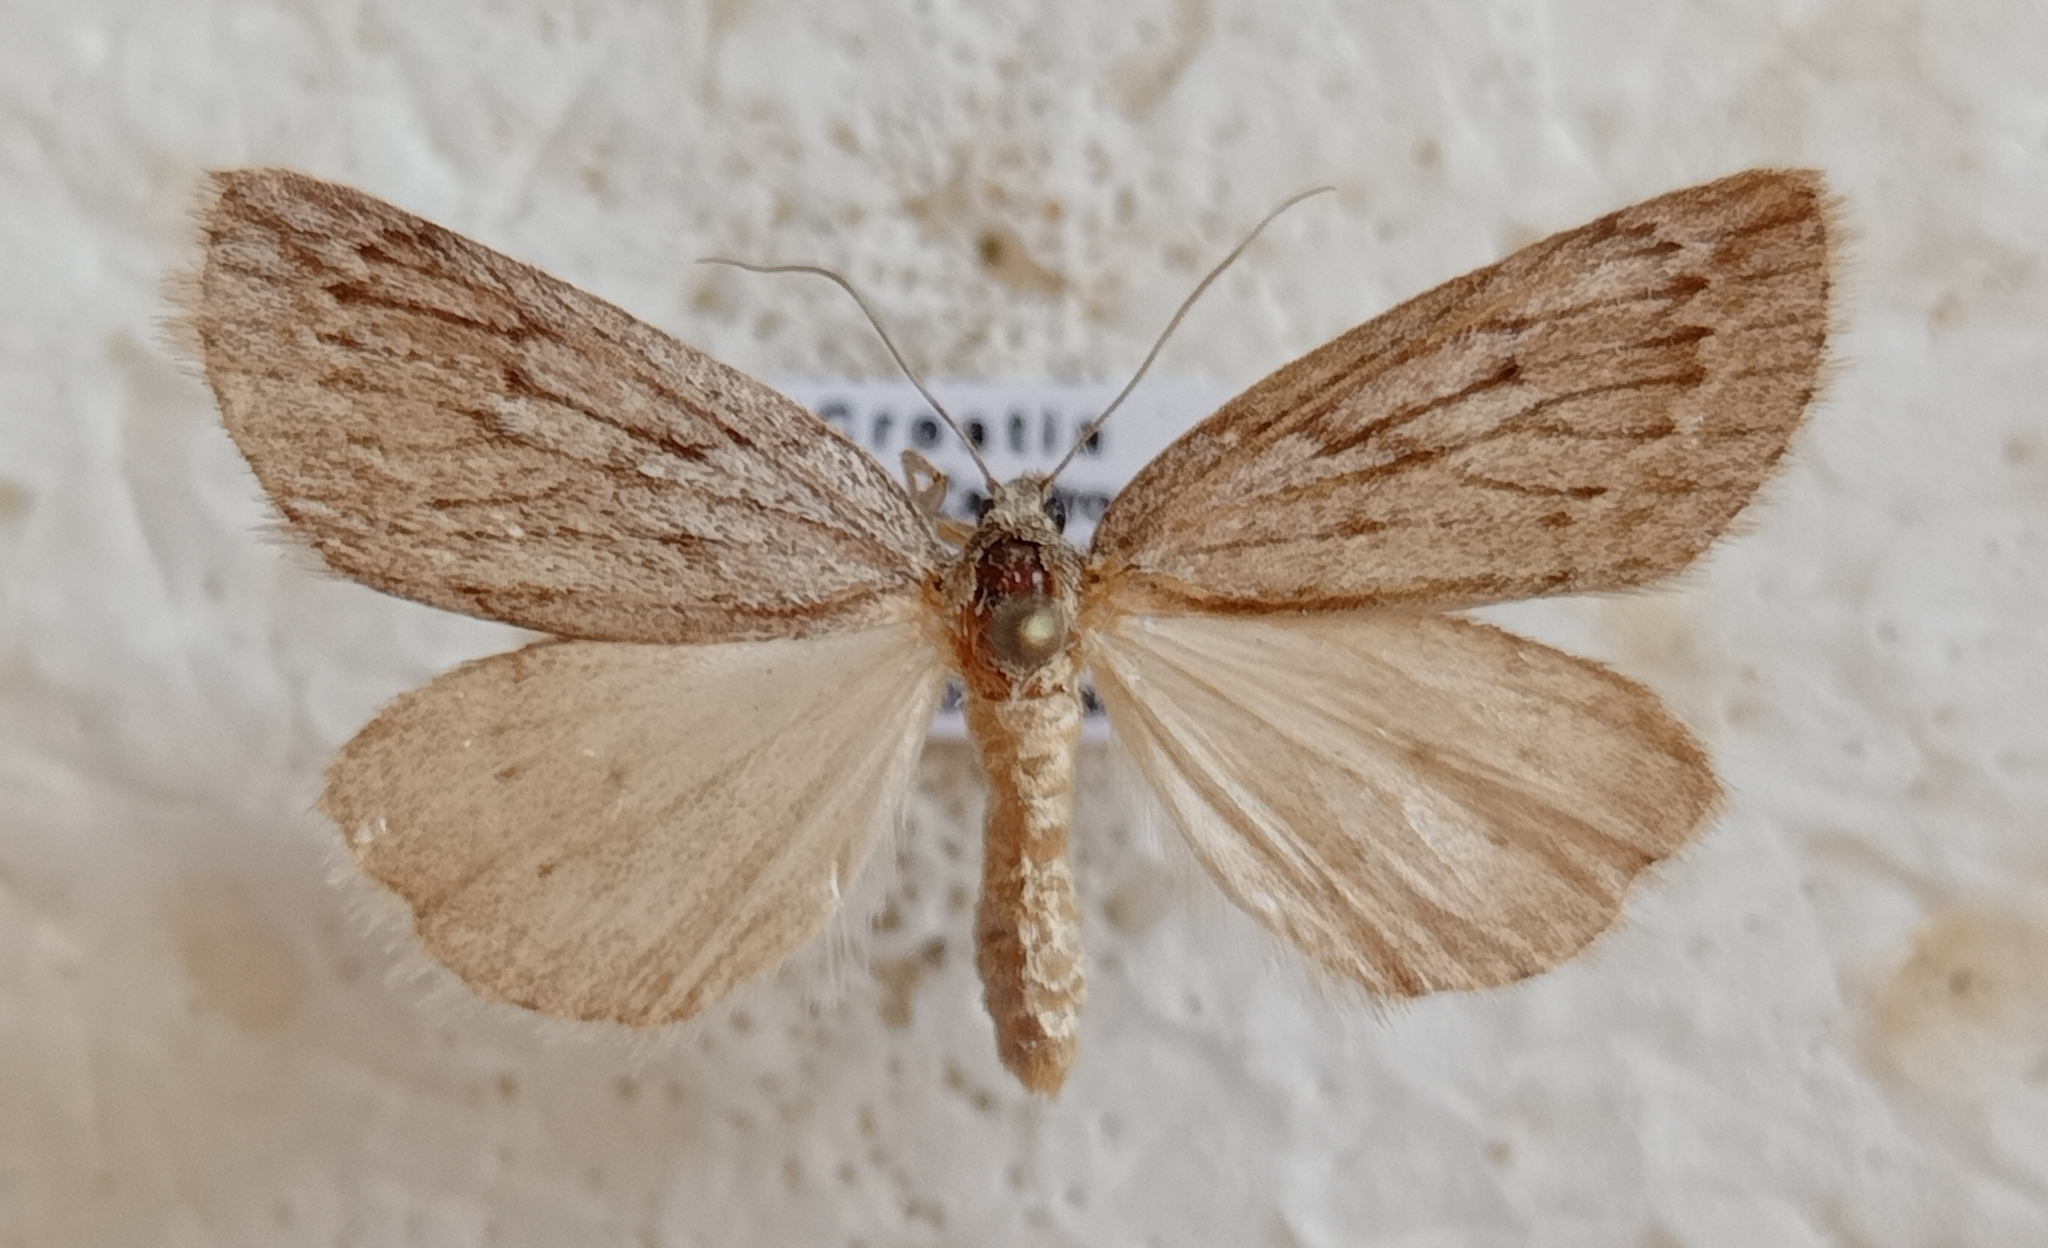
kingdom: Animalia
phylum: Arthropoda
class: Insecta
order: Lepidoptera
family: Geometridae
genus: Pachycnemia
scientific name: Pachycnemia hippocastanaria
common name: Horse chestnut
